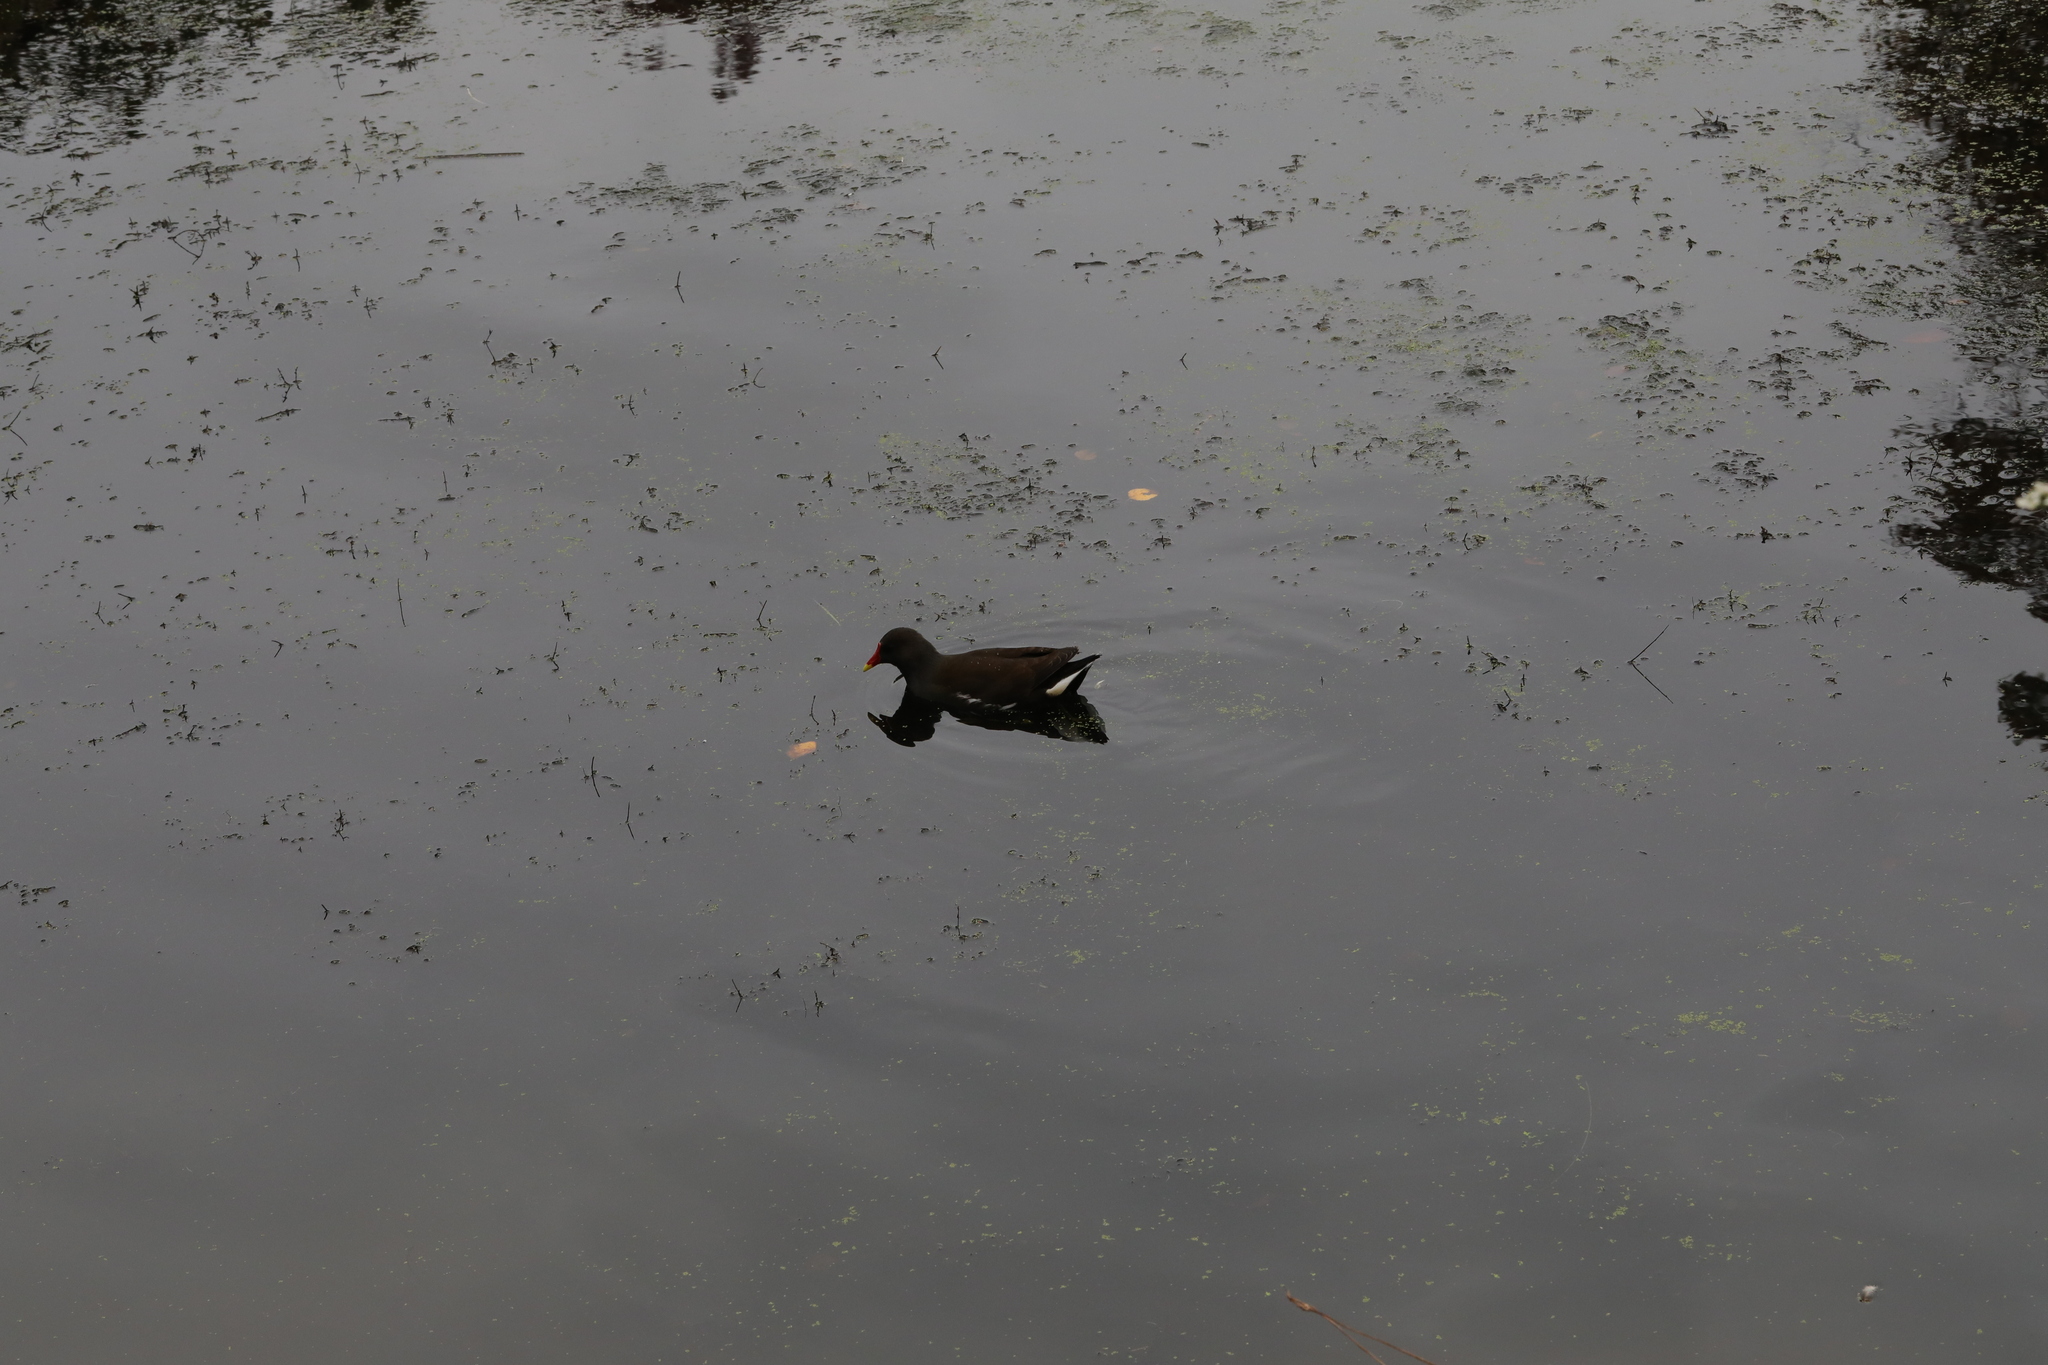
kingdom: Animalia
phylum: Chordata
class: Aves
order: Gruiformes
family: Rallidae
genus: Gallinula
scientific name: Gallinula chloropus
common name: Common moorhen
